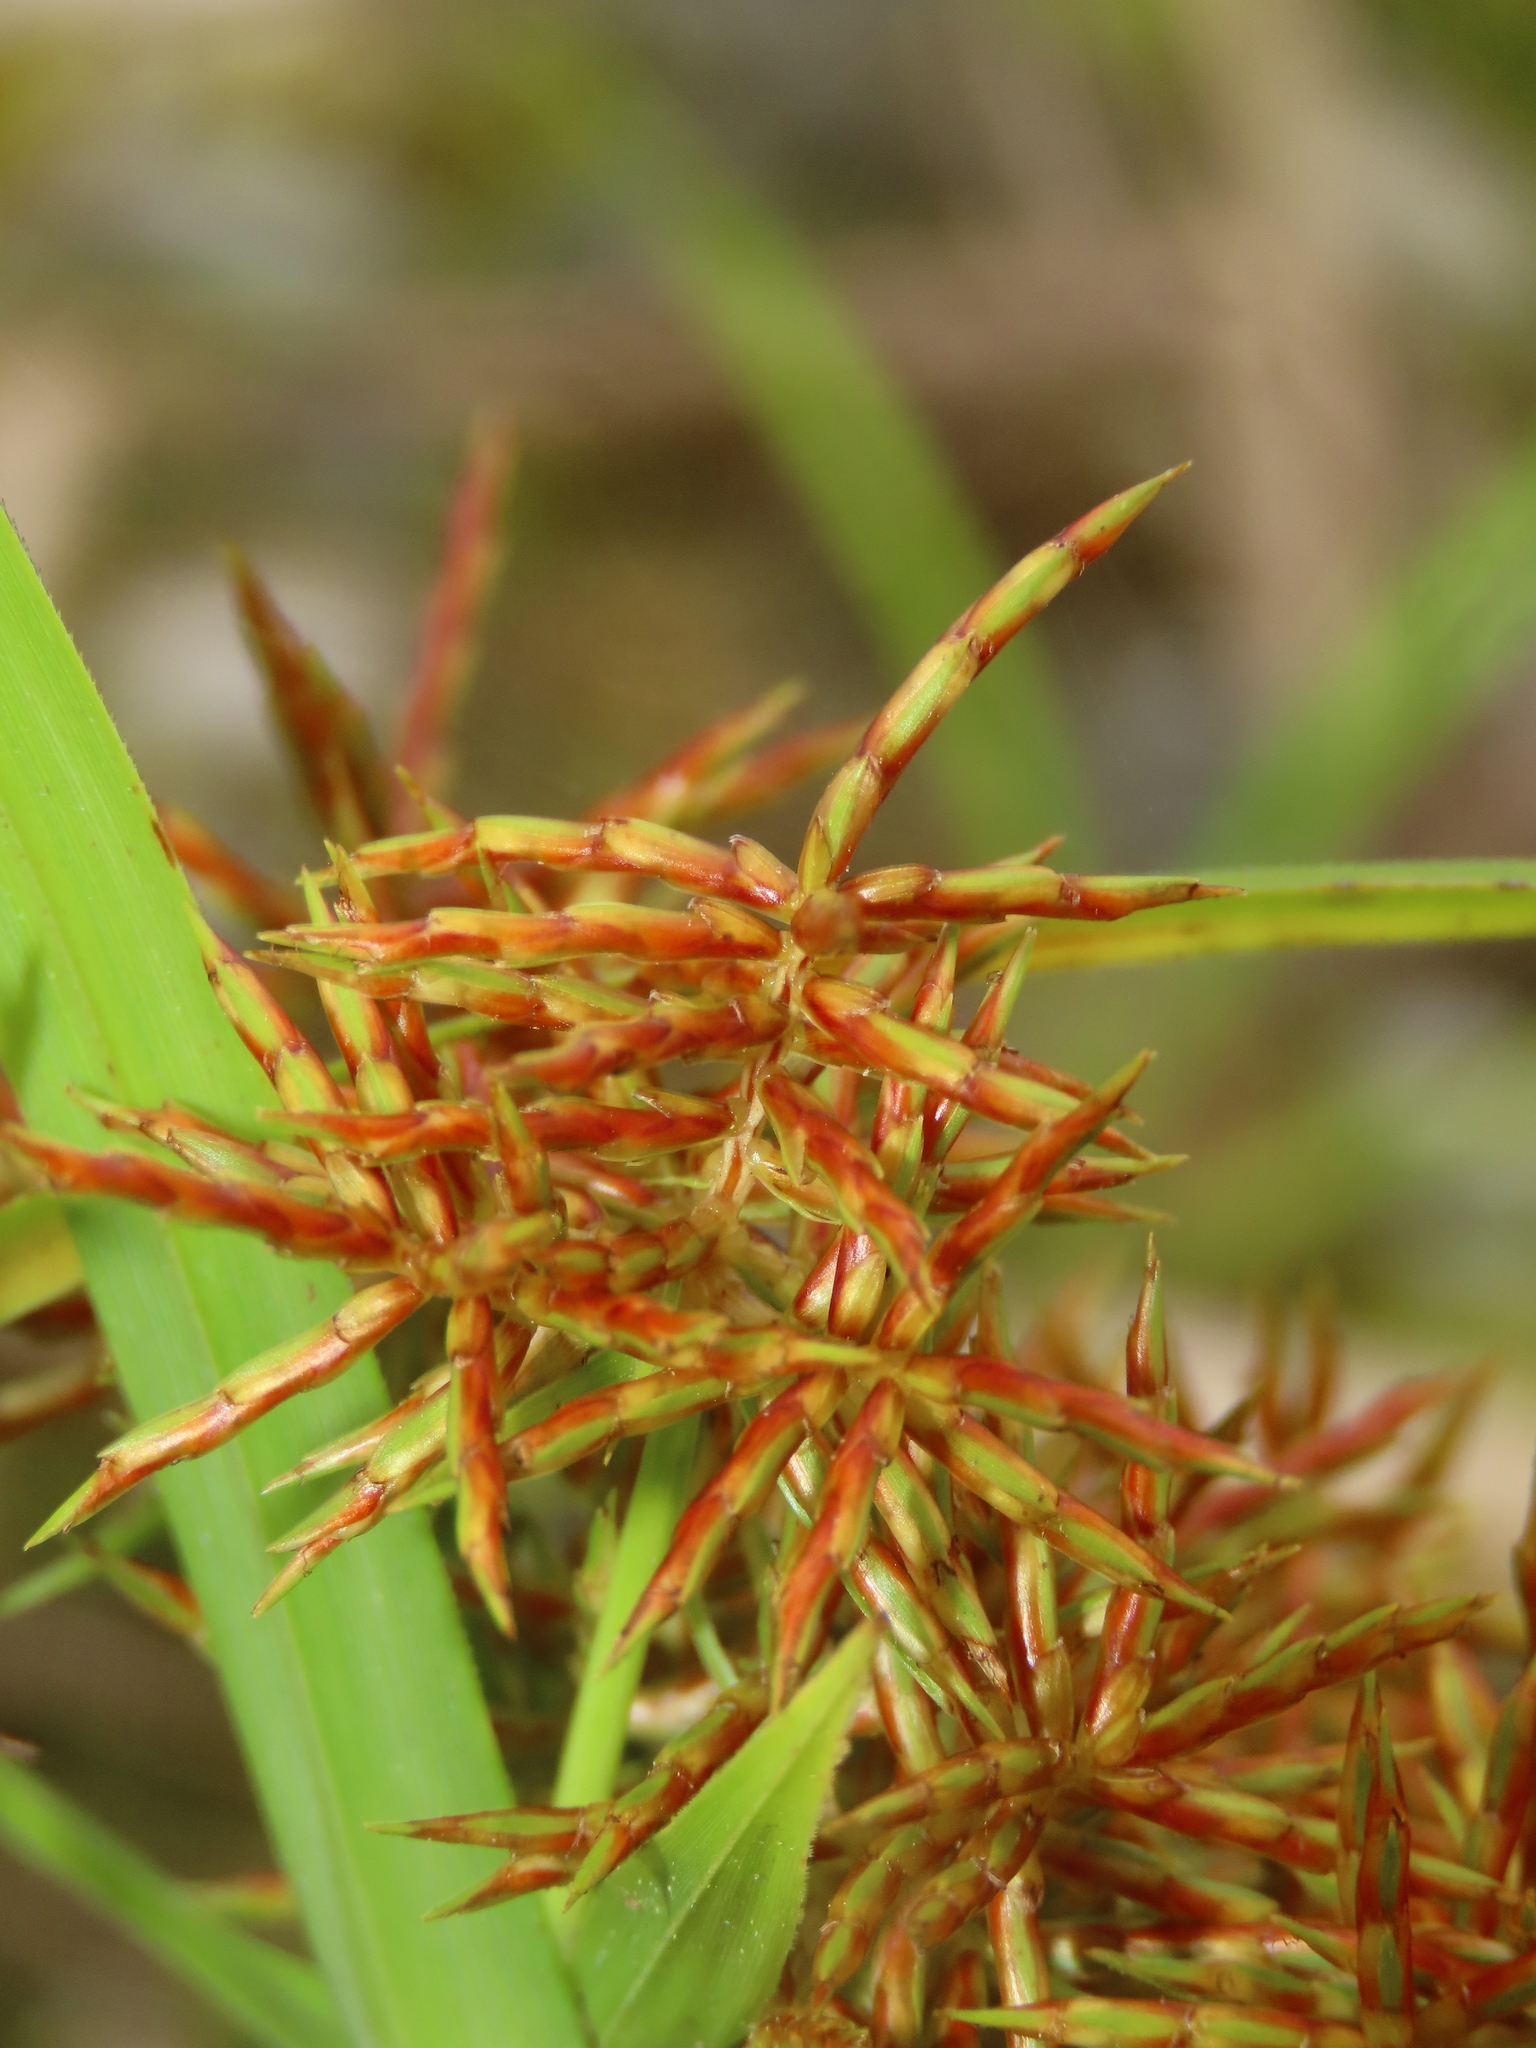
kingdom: Plantae
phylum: Tracheophyta
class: Liliopsida
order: Poales
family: Cyperaceae
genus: Cyperus
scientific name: Cyperus odoratus
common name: Fragrant flatsedge
